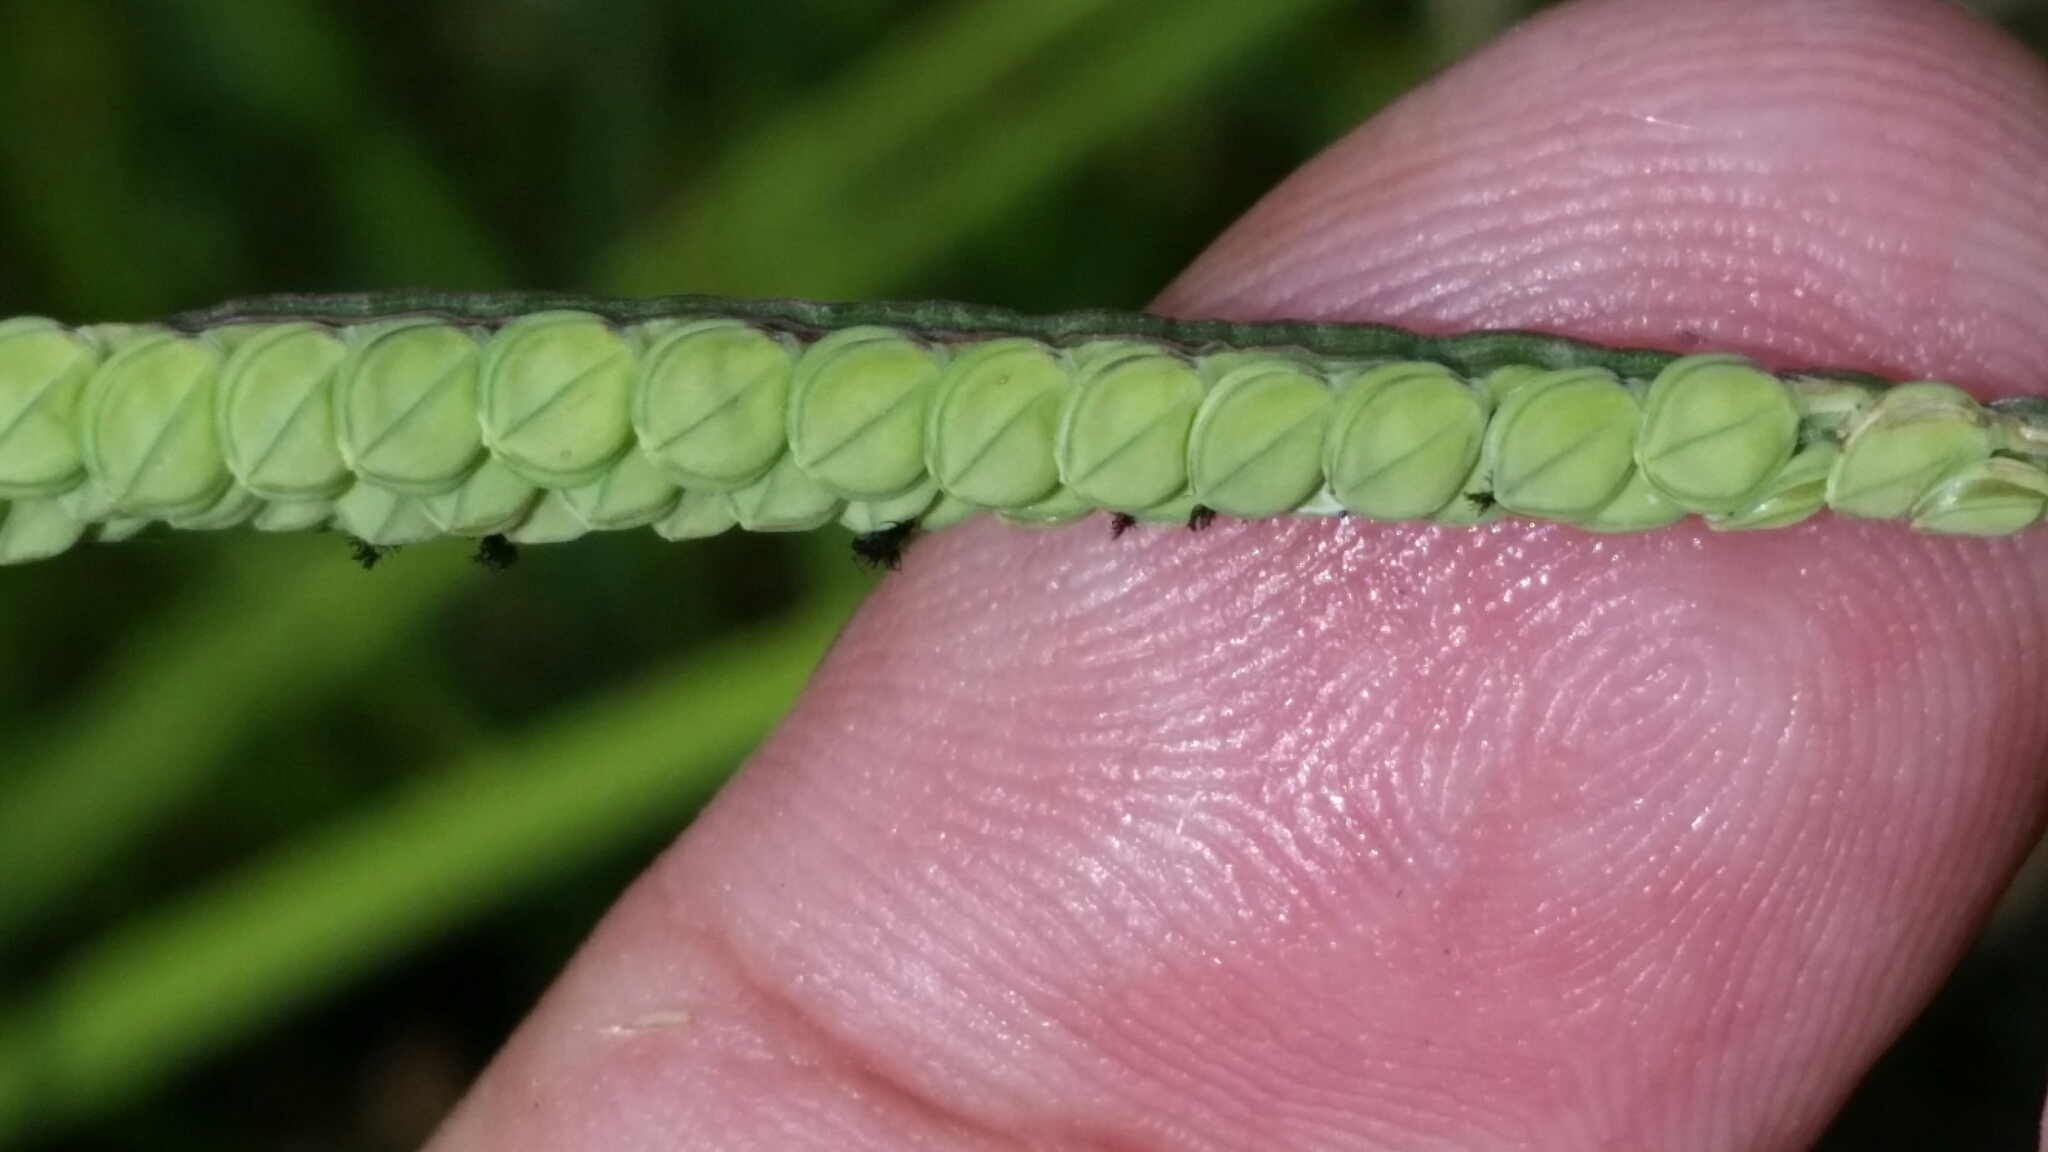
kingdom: Plantae
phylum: Tracheophyta
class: Liliopsida
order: Poales
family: Poaceae
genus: Paspalum
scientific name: Paspalum praecox
